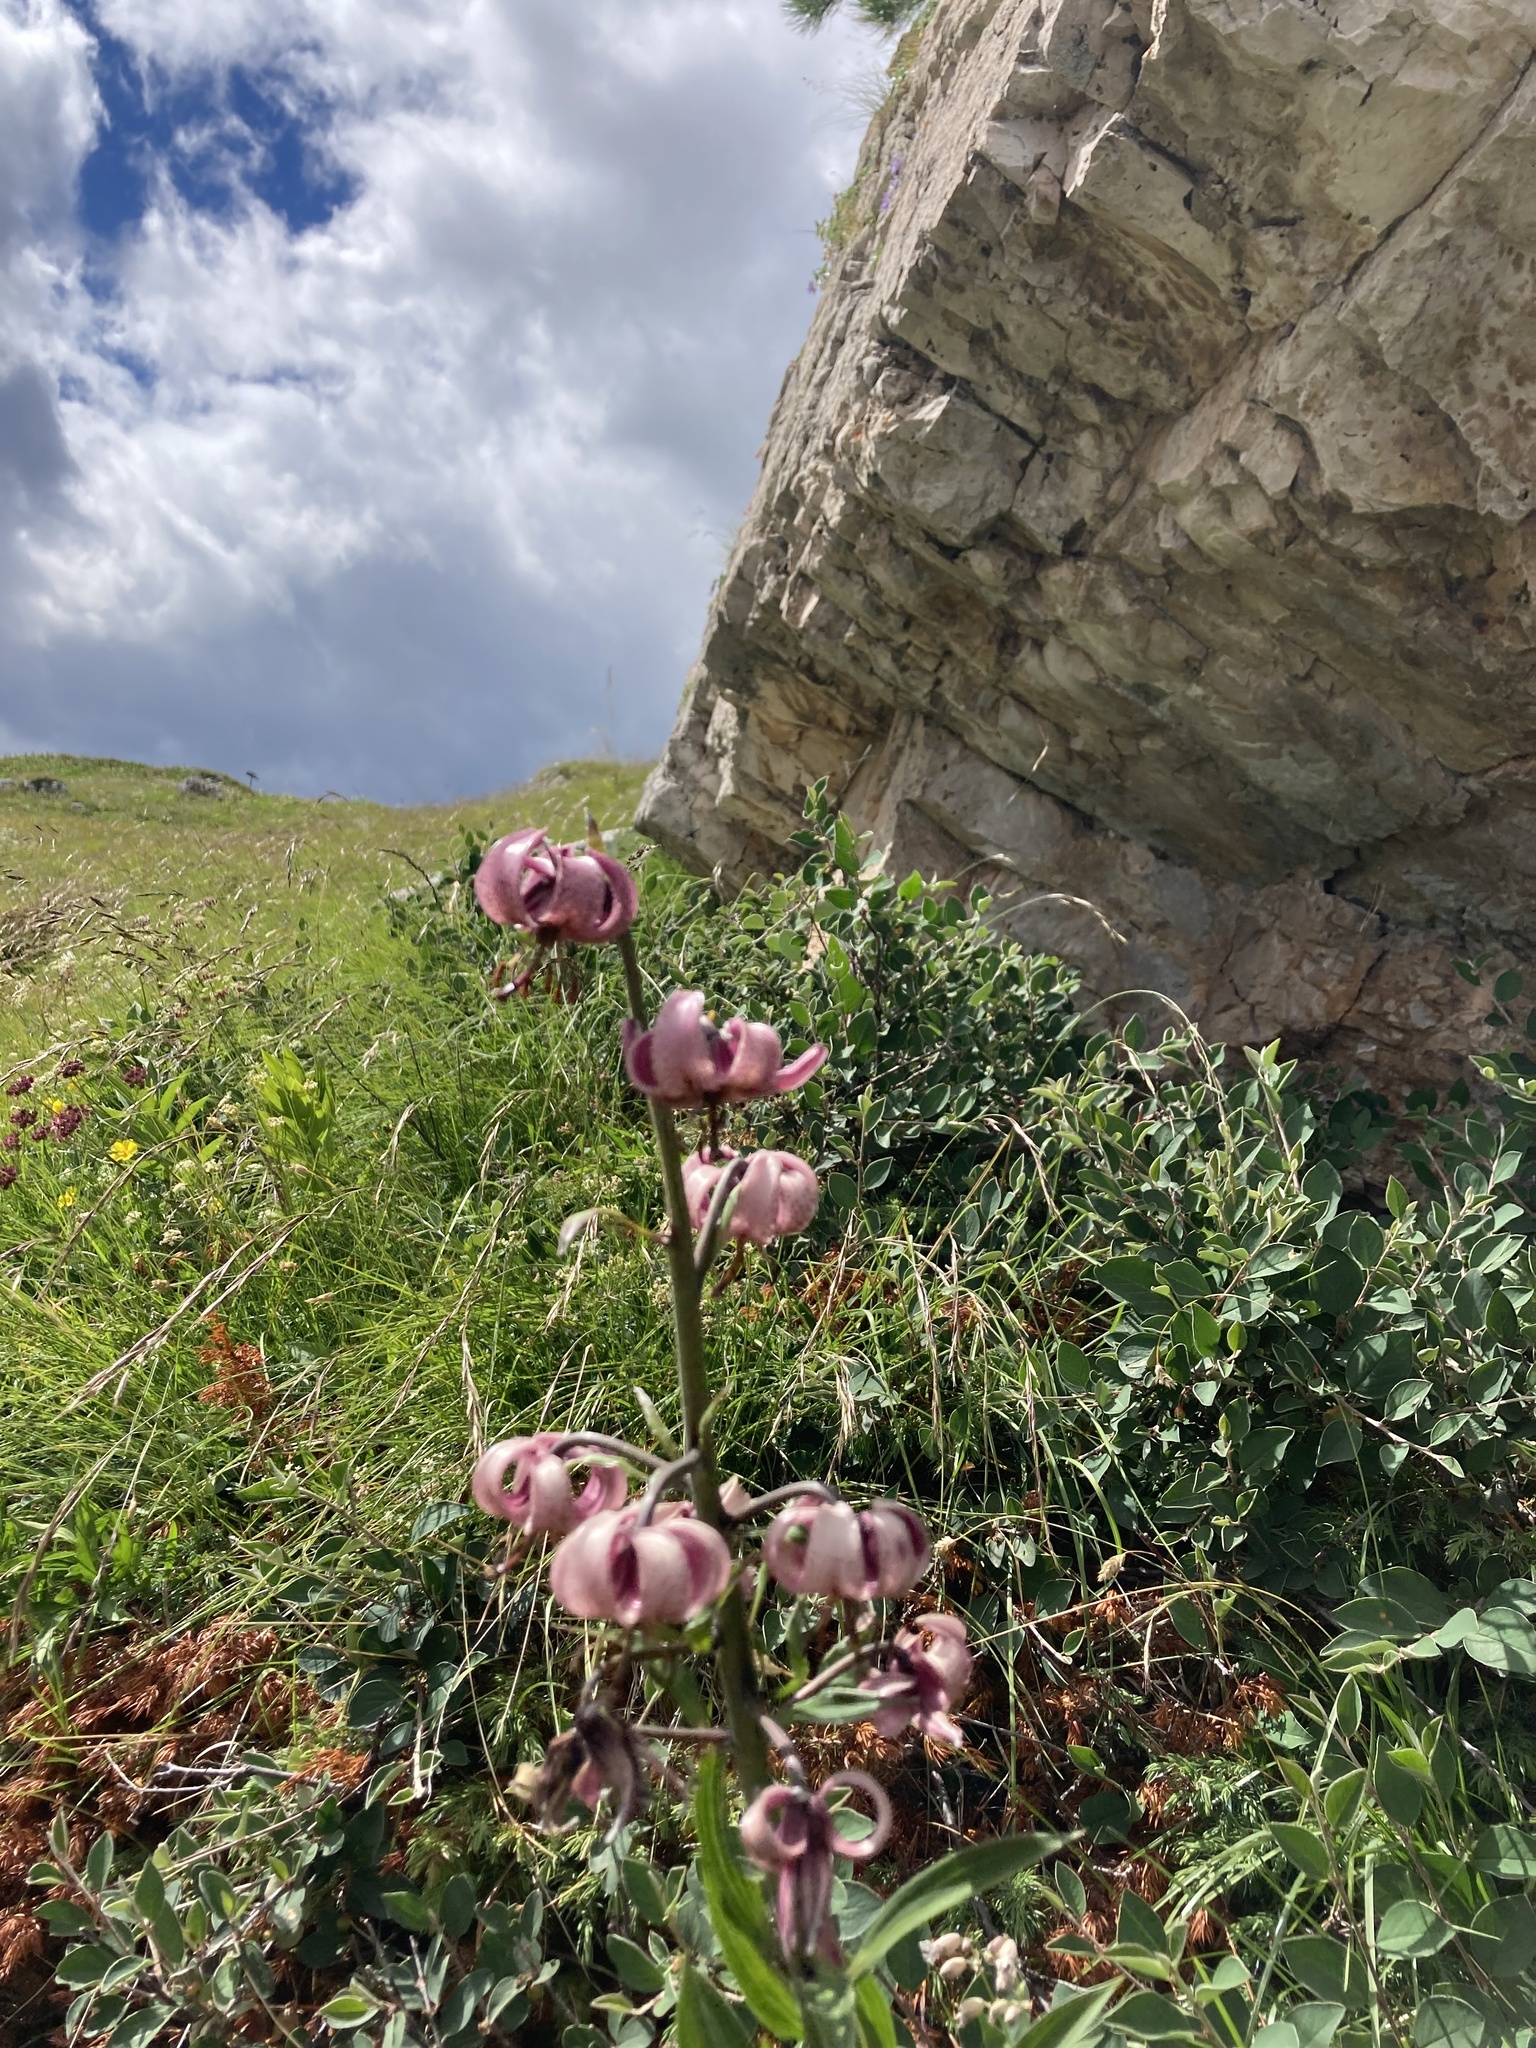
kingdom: Plantae
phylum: Tracheophyta
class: Liliopsida
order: Liliales
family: Liliaceae
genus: Lilium
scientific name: Lilium martagon
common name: Martagon lily
